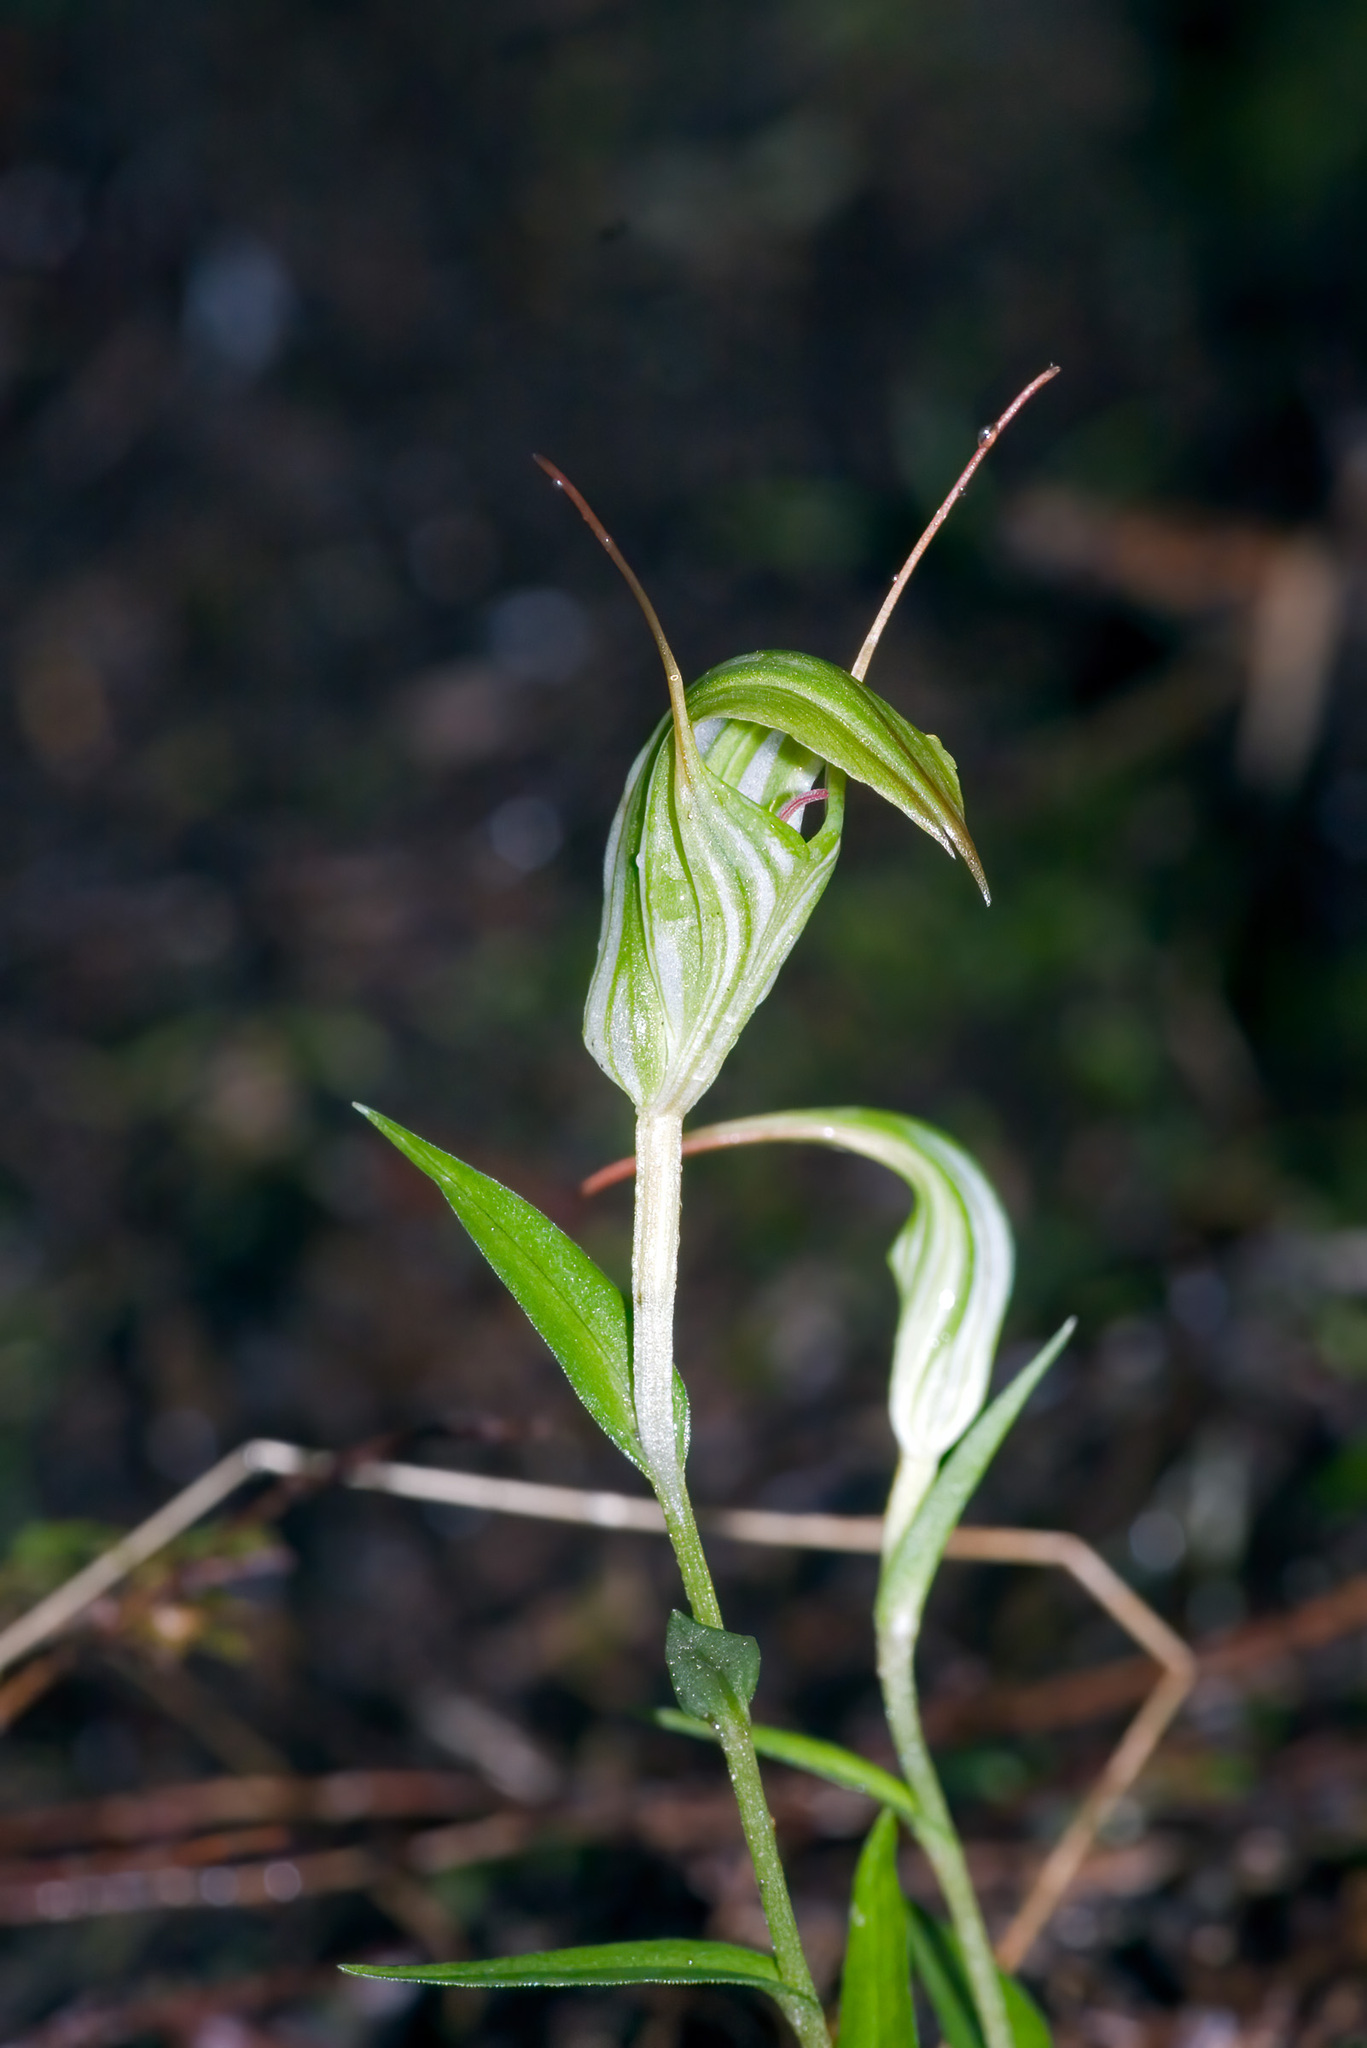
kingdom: Plantae
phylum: Tracheophyta
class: Liliopsida
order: Asparagales
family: Orchidaceae
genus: Pterostylis
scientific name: Pterostylis alobula
